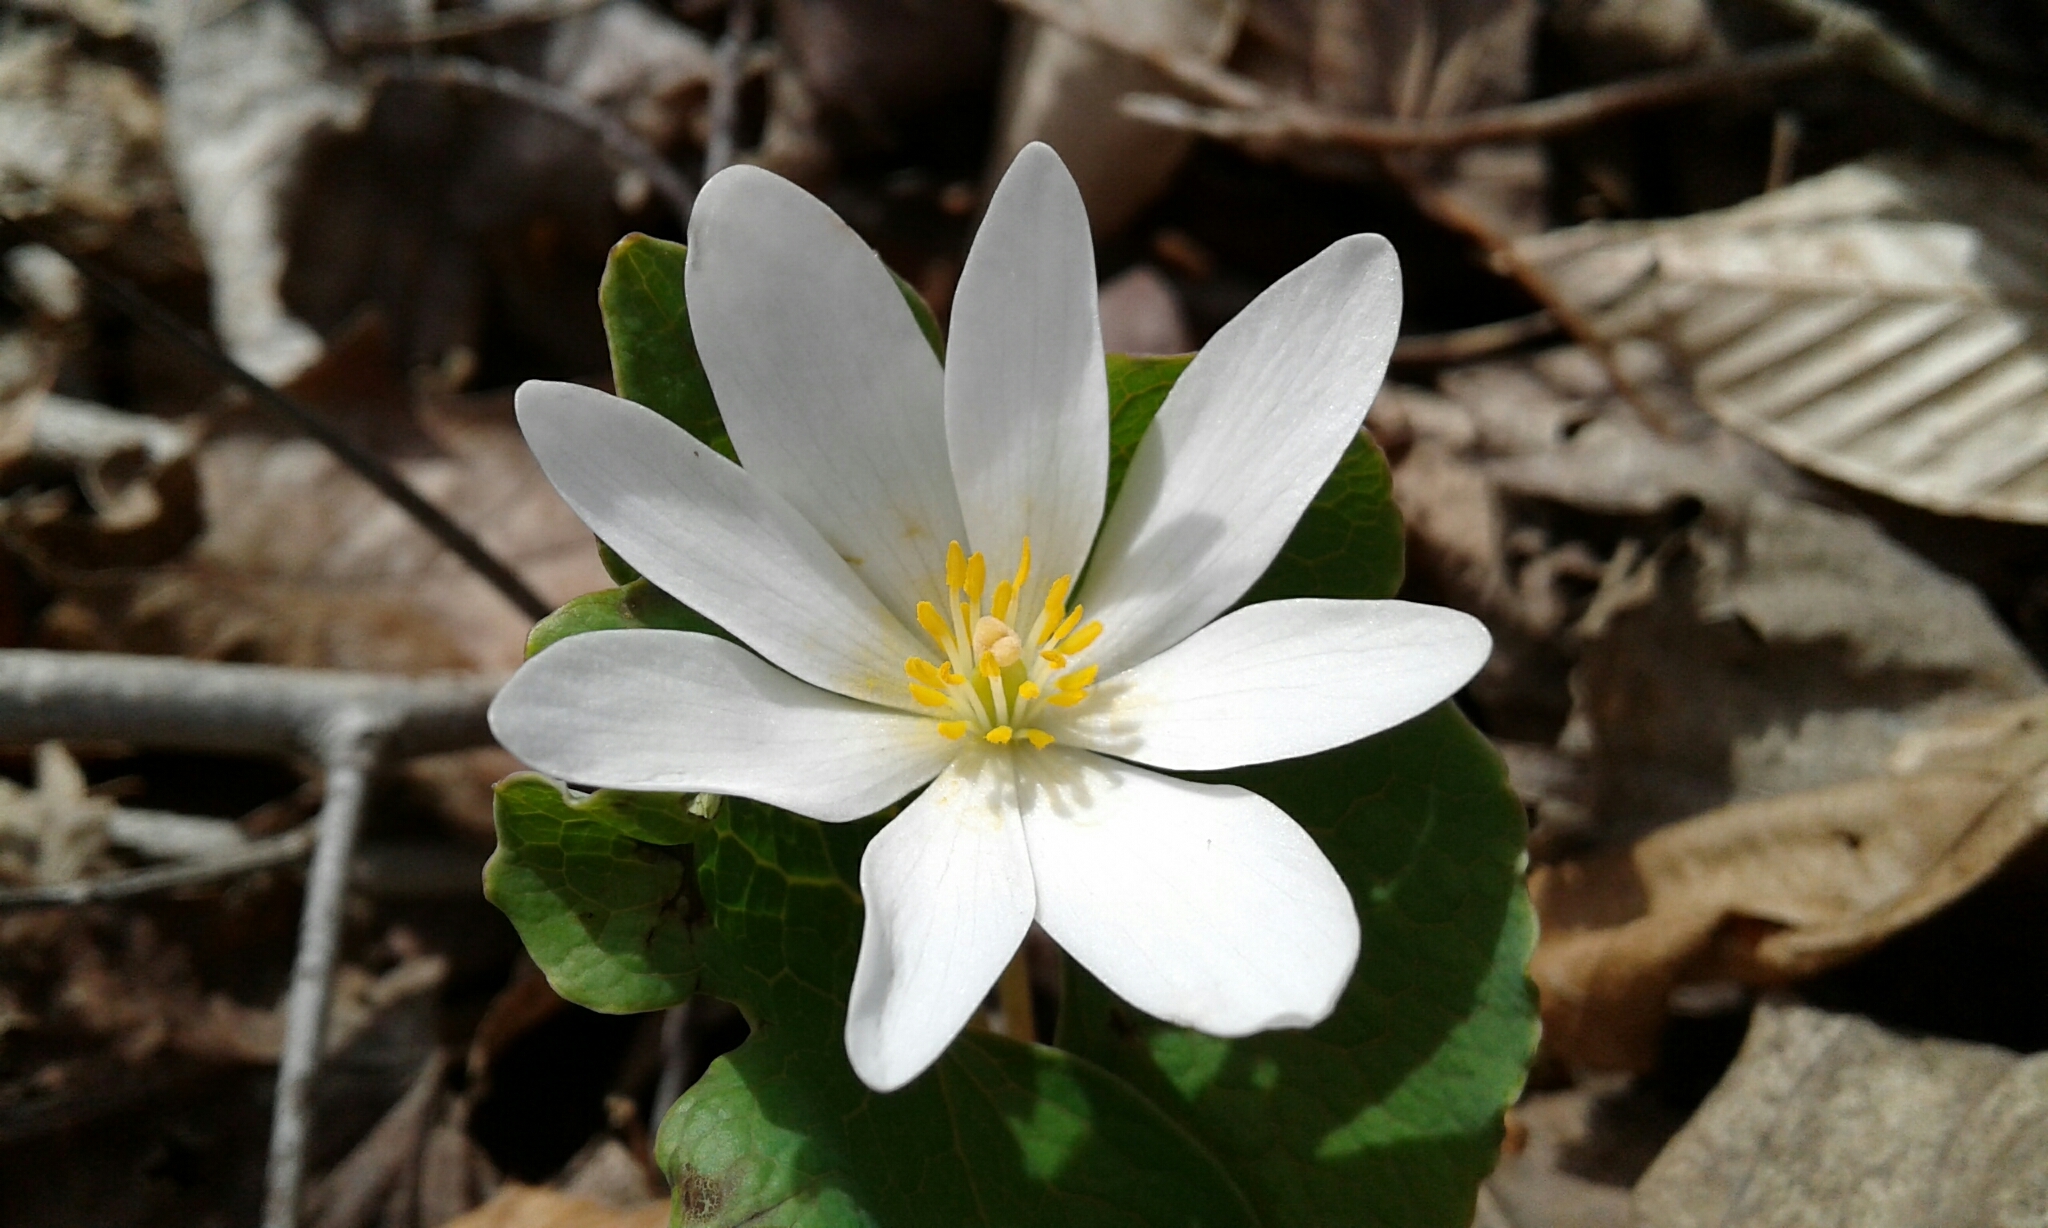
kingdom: Plantae
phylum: Tracheophyta
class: Magnoliopsida
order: Ranunculales
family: Papaveraceae
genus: Sanguinaria
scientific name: Sanguinaria canadensis
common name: Bloodroot
